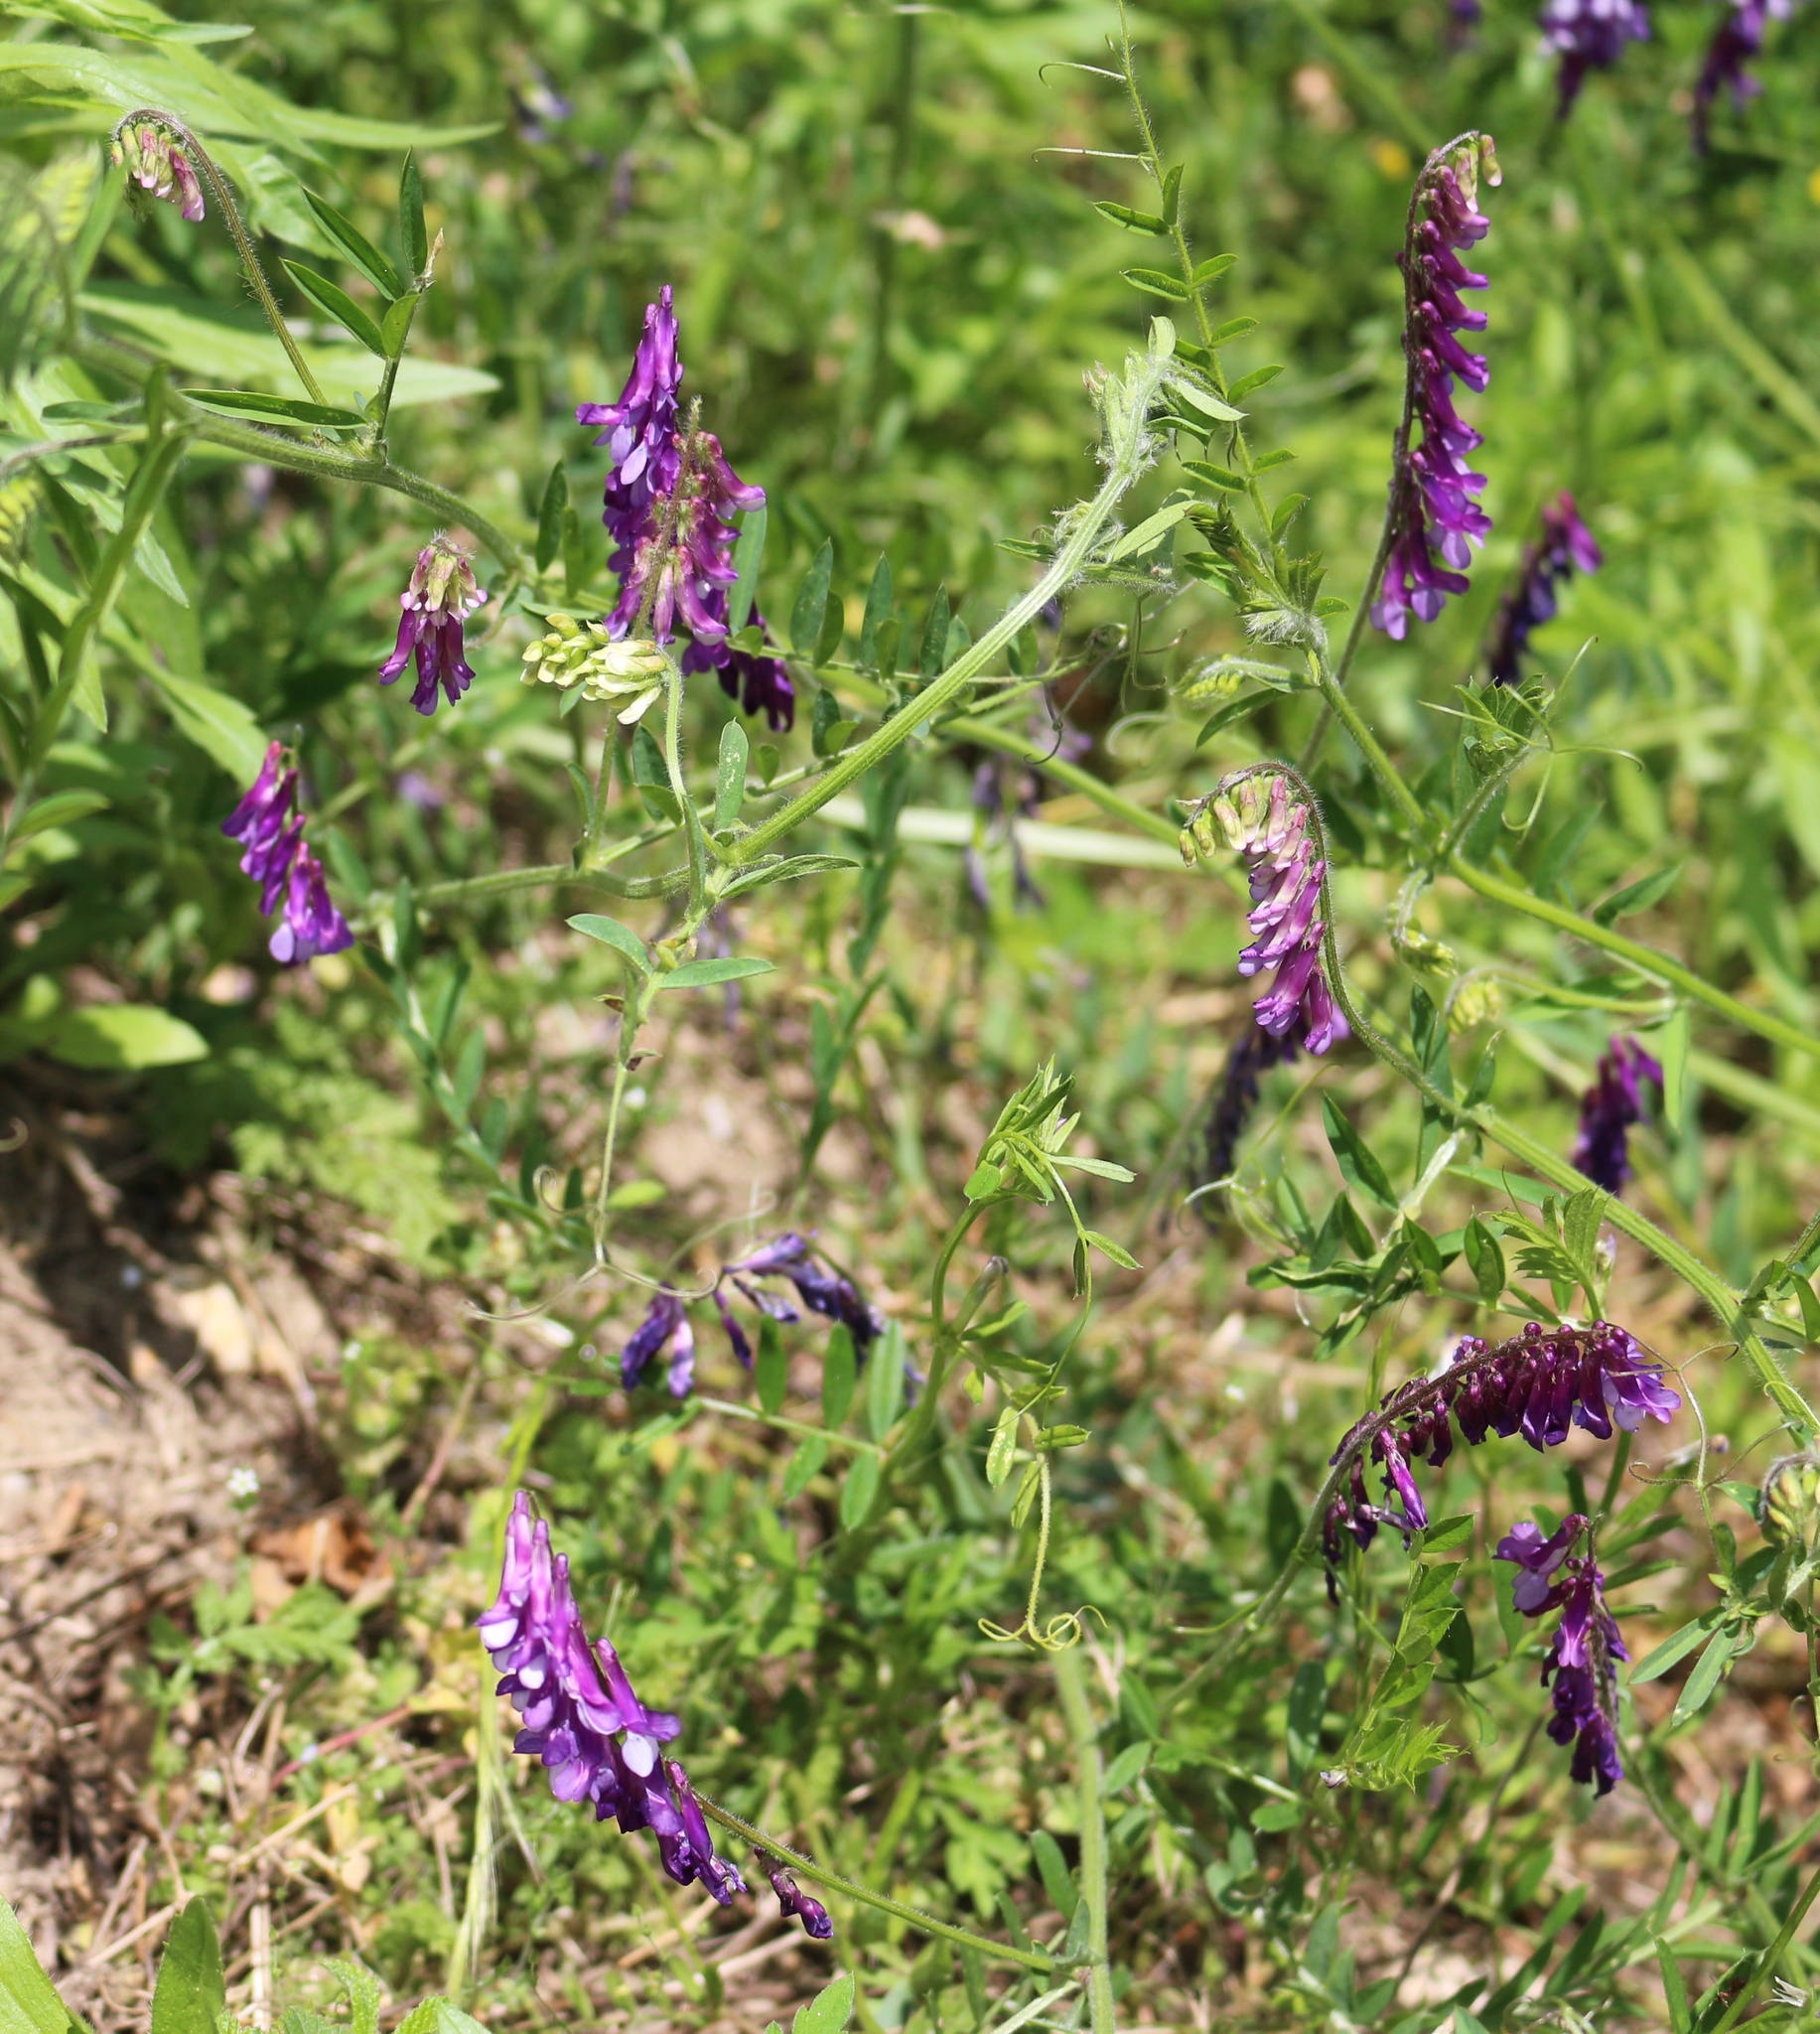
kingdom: Plantae
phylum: Tracheophyta
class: Magnoliopsida
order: Fabales
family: Fabaceae
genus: Vicia
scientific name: Vicia villosa
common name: Fodder vetch
